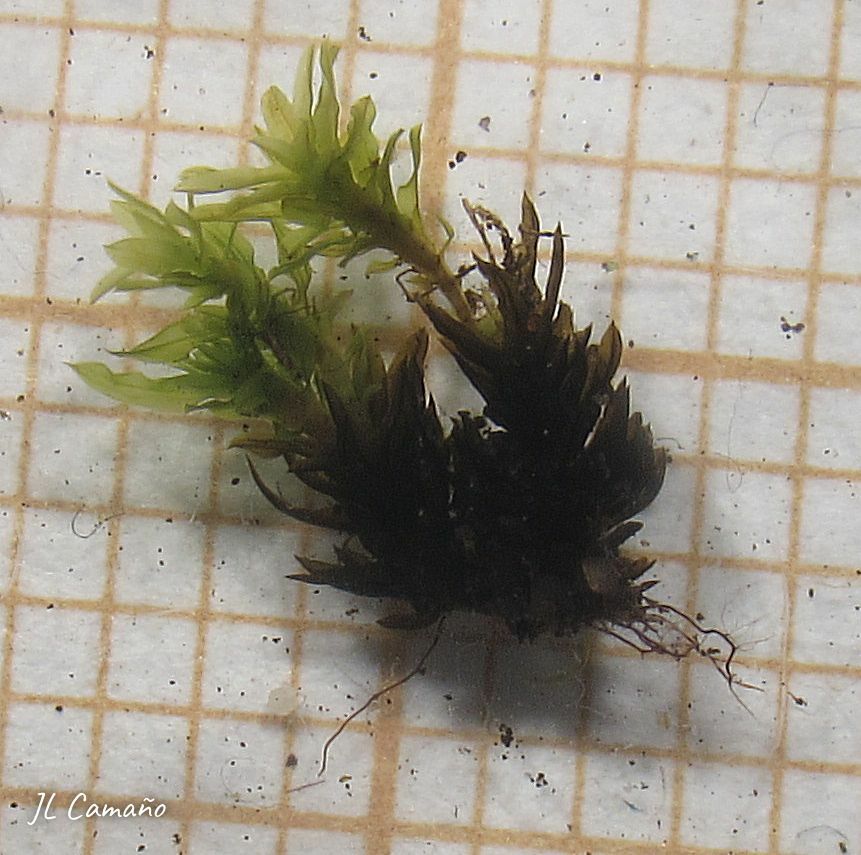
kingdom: Plantae
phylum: Bryophyta
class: Bryopsida
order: Pottiales
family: Pottiaceae
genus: Trichostomum
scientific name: Trichostomum brachydontium
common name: Variable crisp-moss
